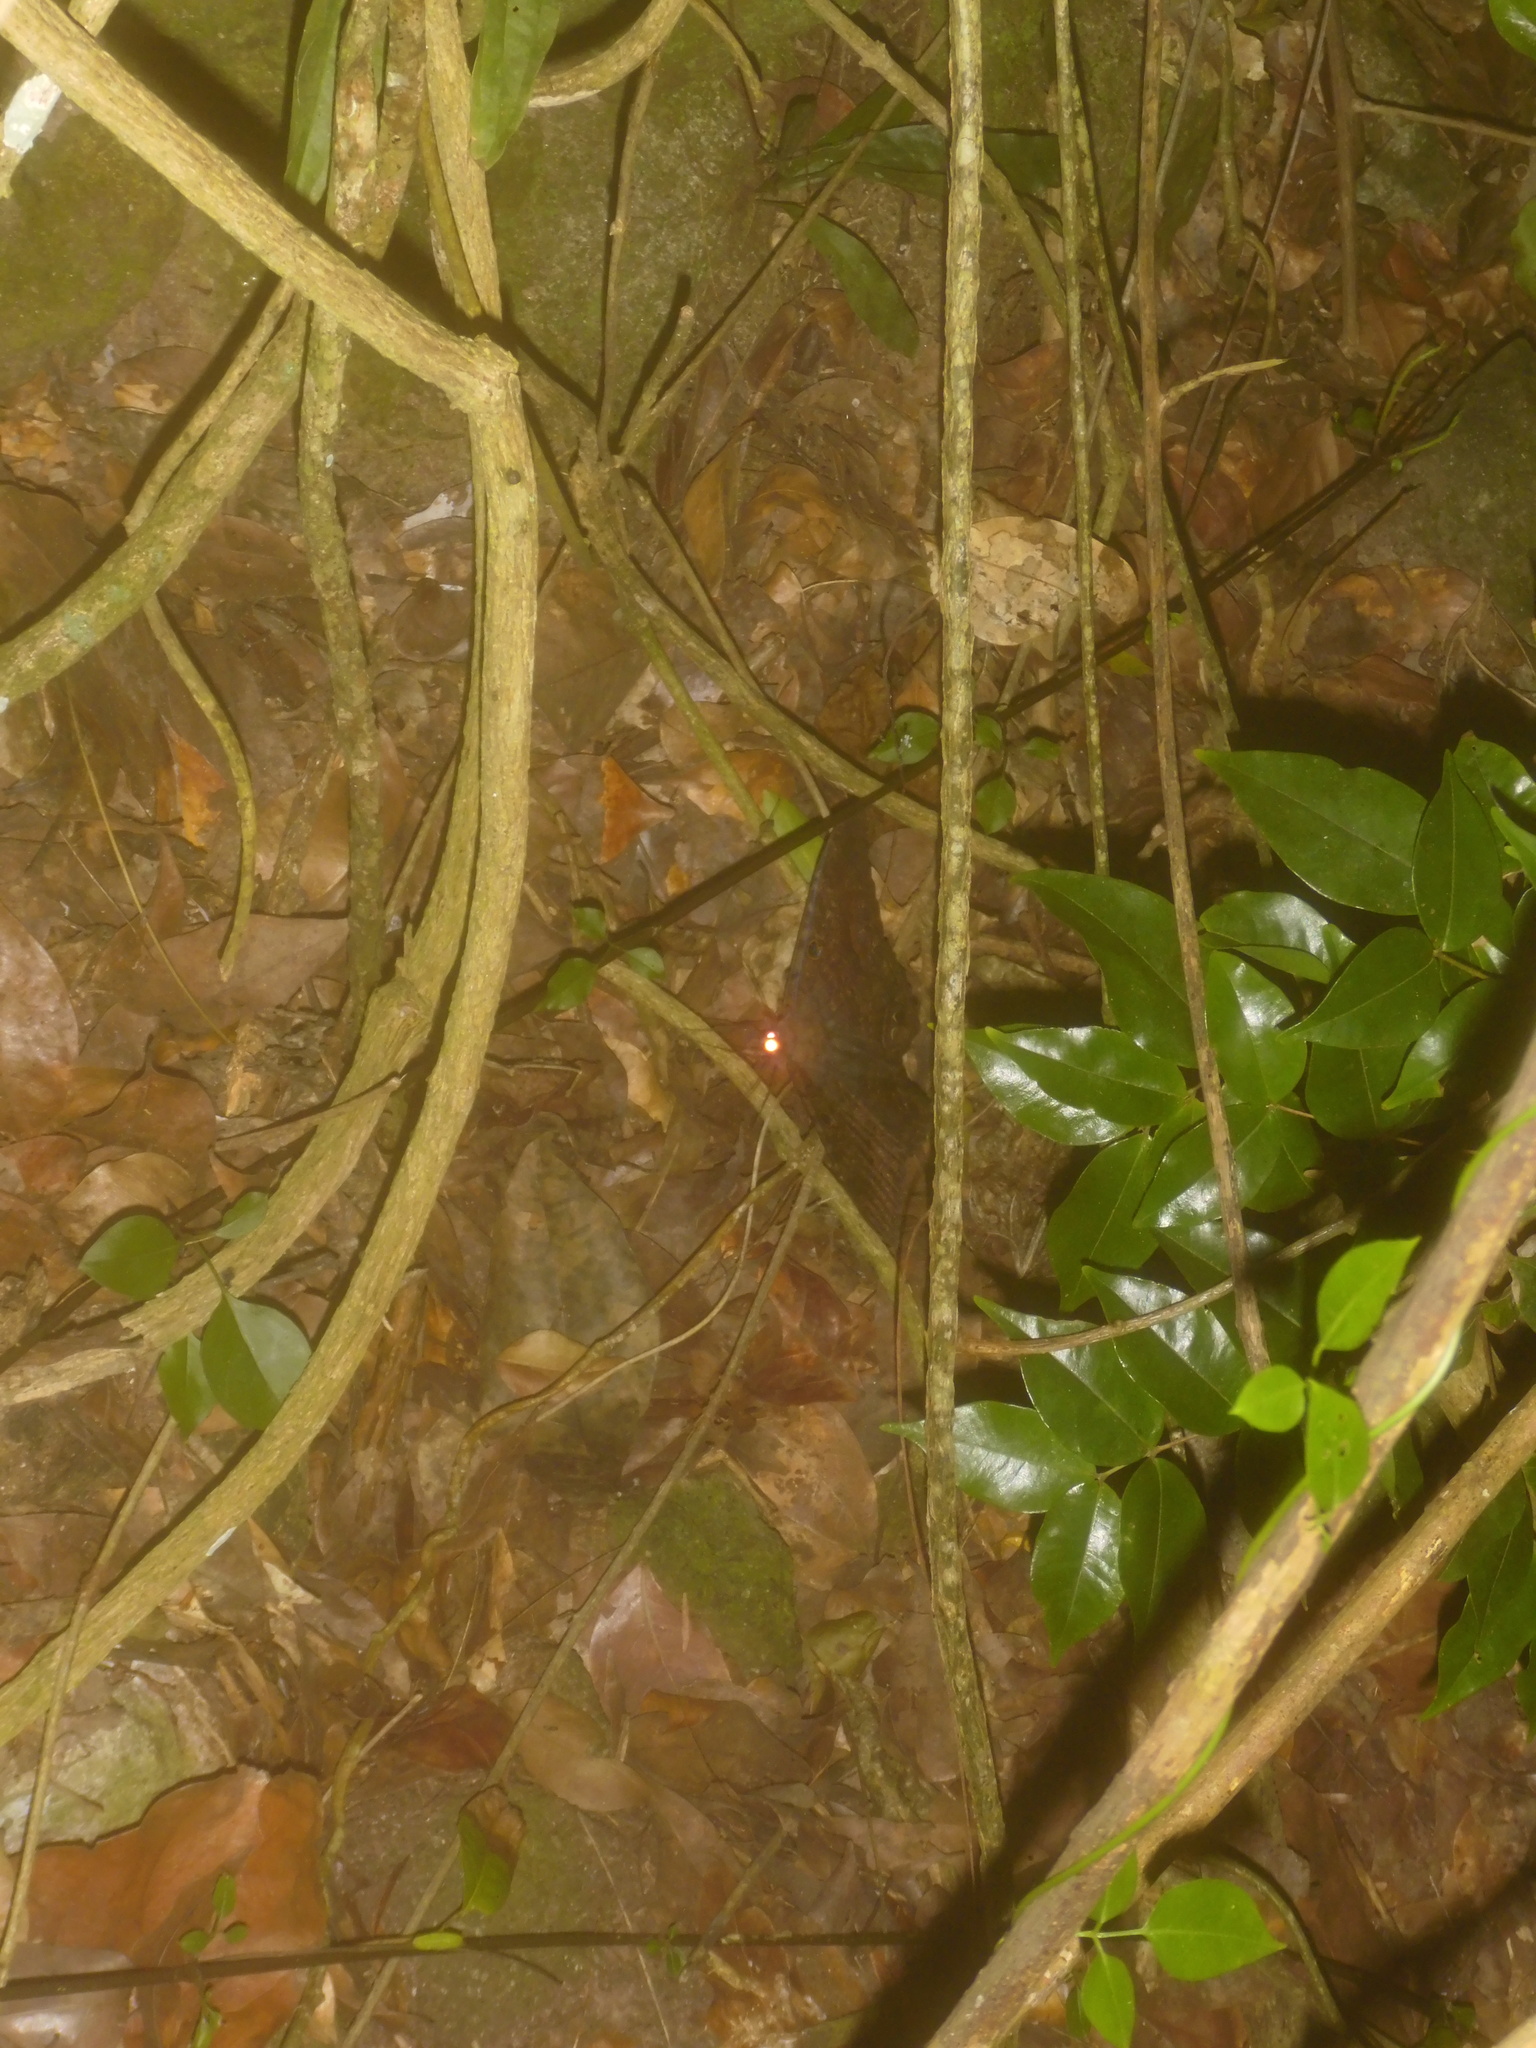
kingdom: Animalia
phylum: Arthropoda
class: Insecta
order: Lepidoptera
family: Erebidae
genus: Ascalapha
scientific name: Ascalapha odorata
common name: Black witch
